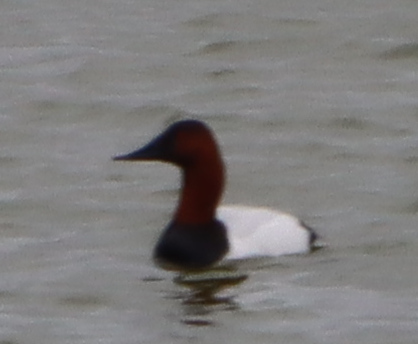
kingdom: Animalia
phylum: Chordata
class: Aves
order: Anseriformes
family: Anatidae
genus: Aythya
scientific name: Aythya valisineria
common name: Canvasback
